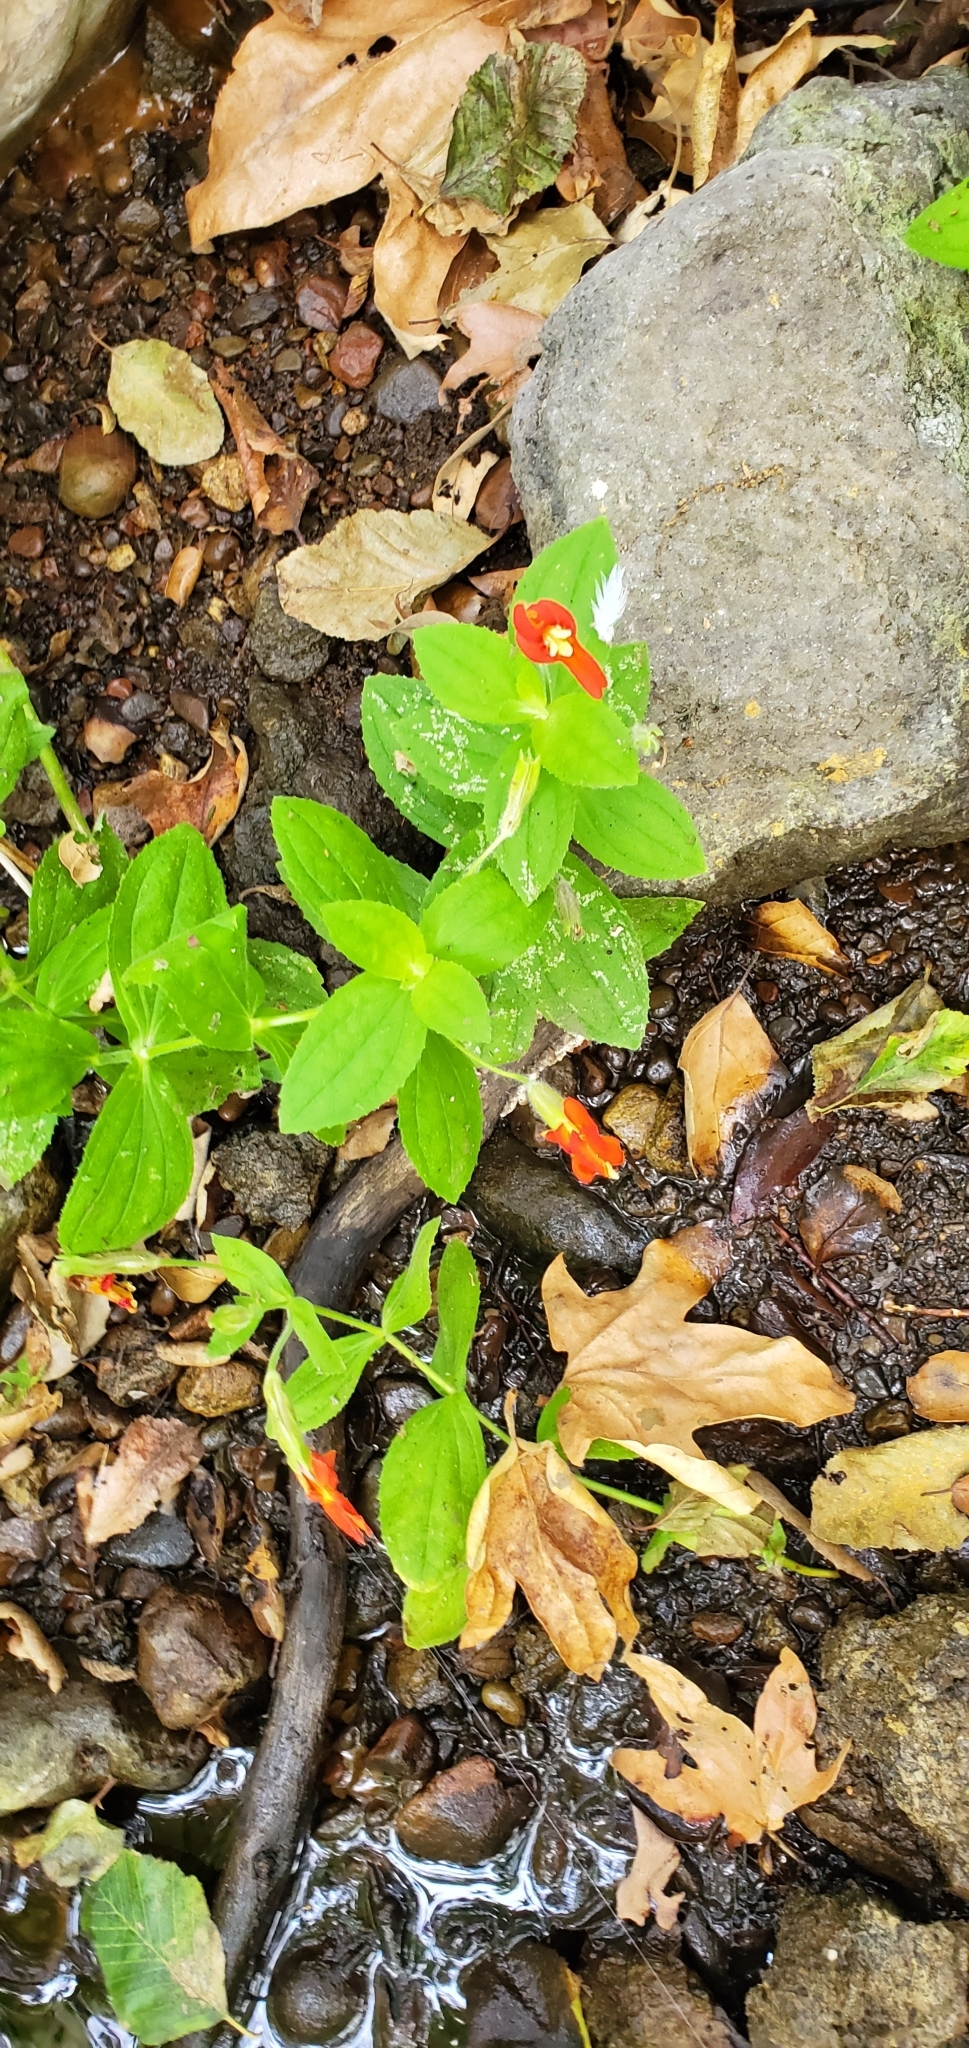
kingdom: Plantae
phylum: Tracheophyta
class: Magnoliopsida
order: Lamiales
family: Phrymaceae
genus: Erythranthe
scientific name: Erythranthe cardinalis
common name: Scarlet monkey-flower
